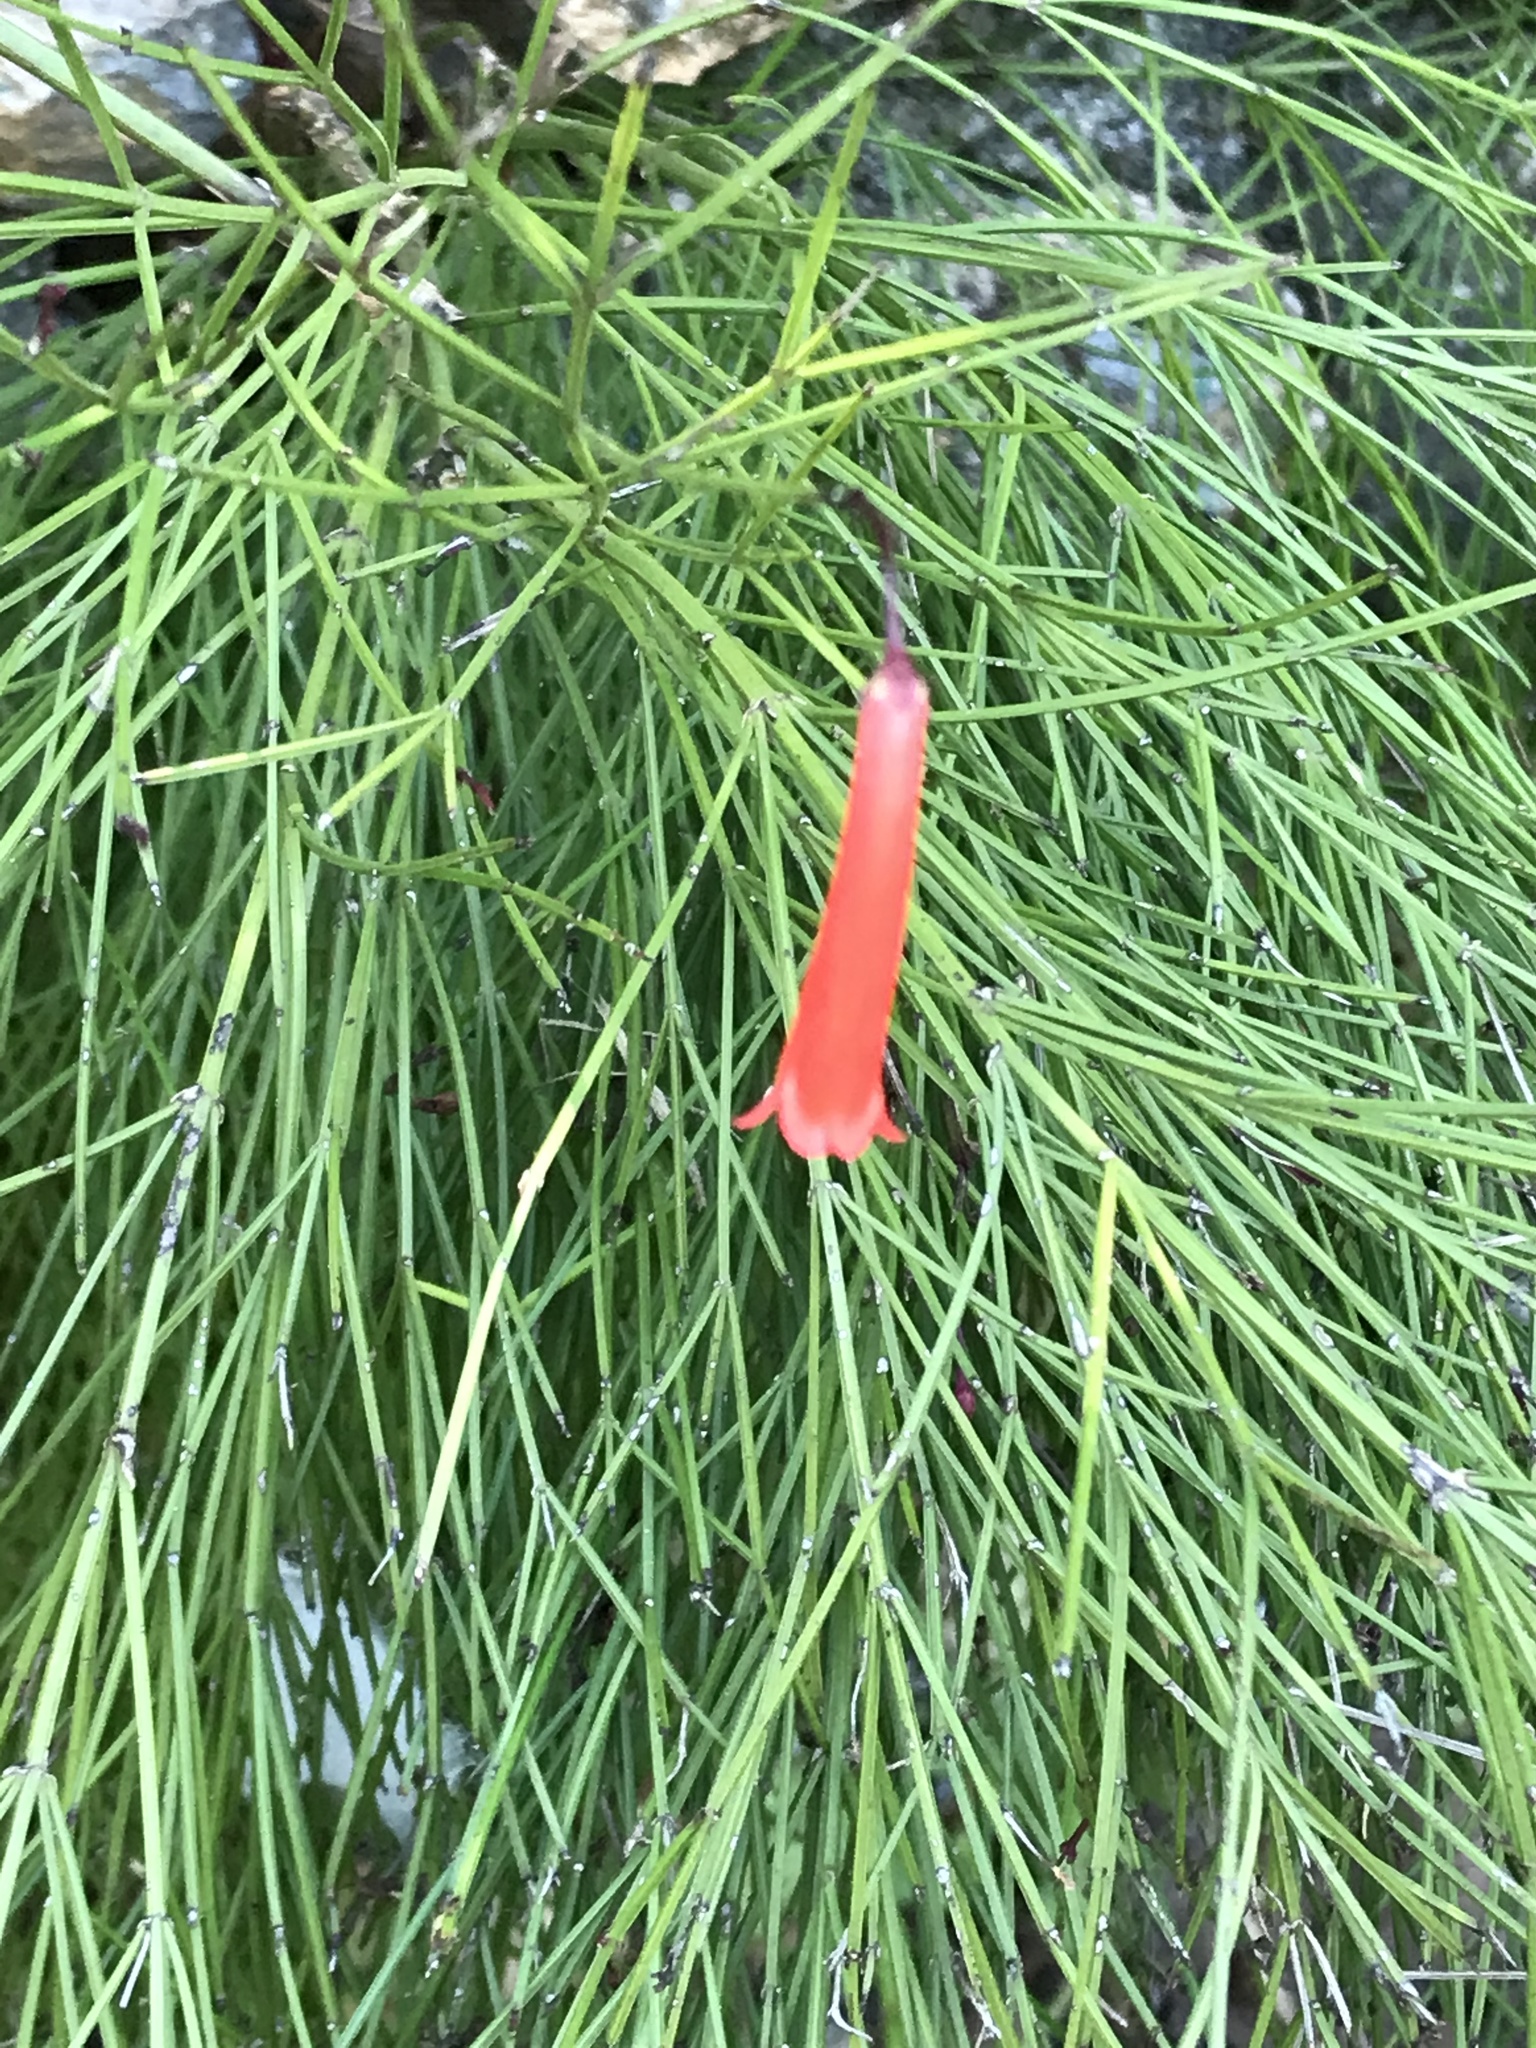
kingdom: Plantae
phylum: Tracheophyta
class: Magnoliopsida
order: Lamiales
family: Plantaginaceae
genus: Russelia
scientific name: Russelia equisetiformis
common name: Fountainbush
